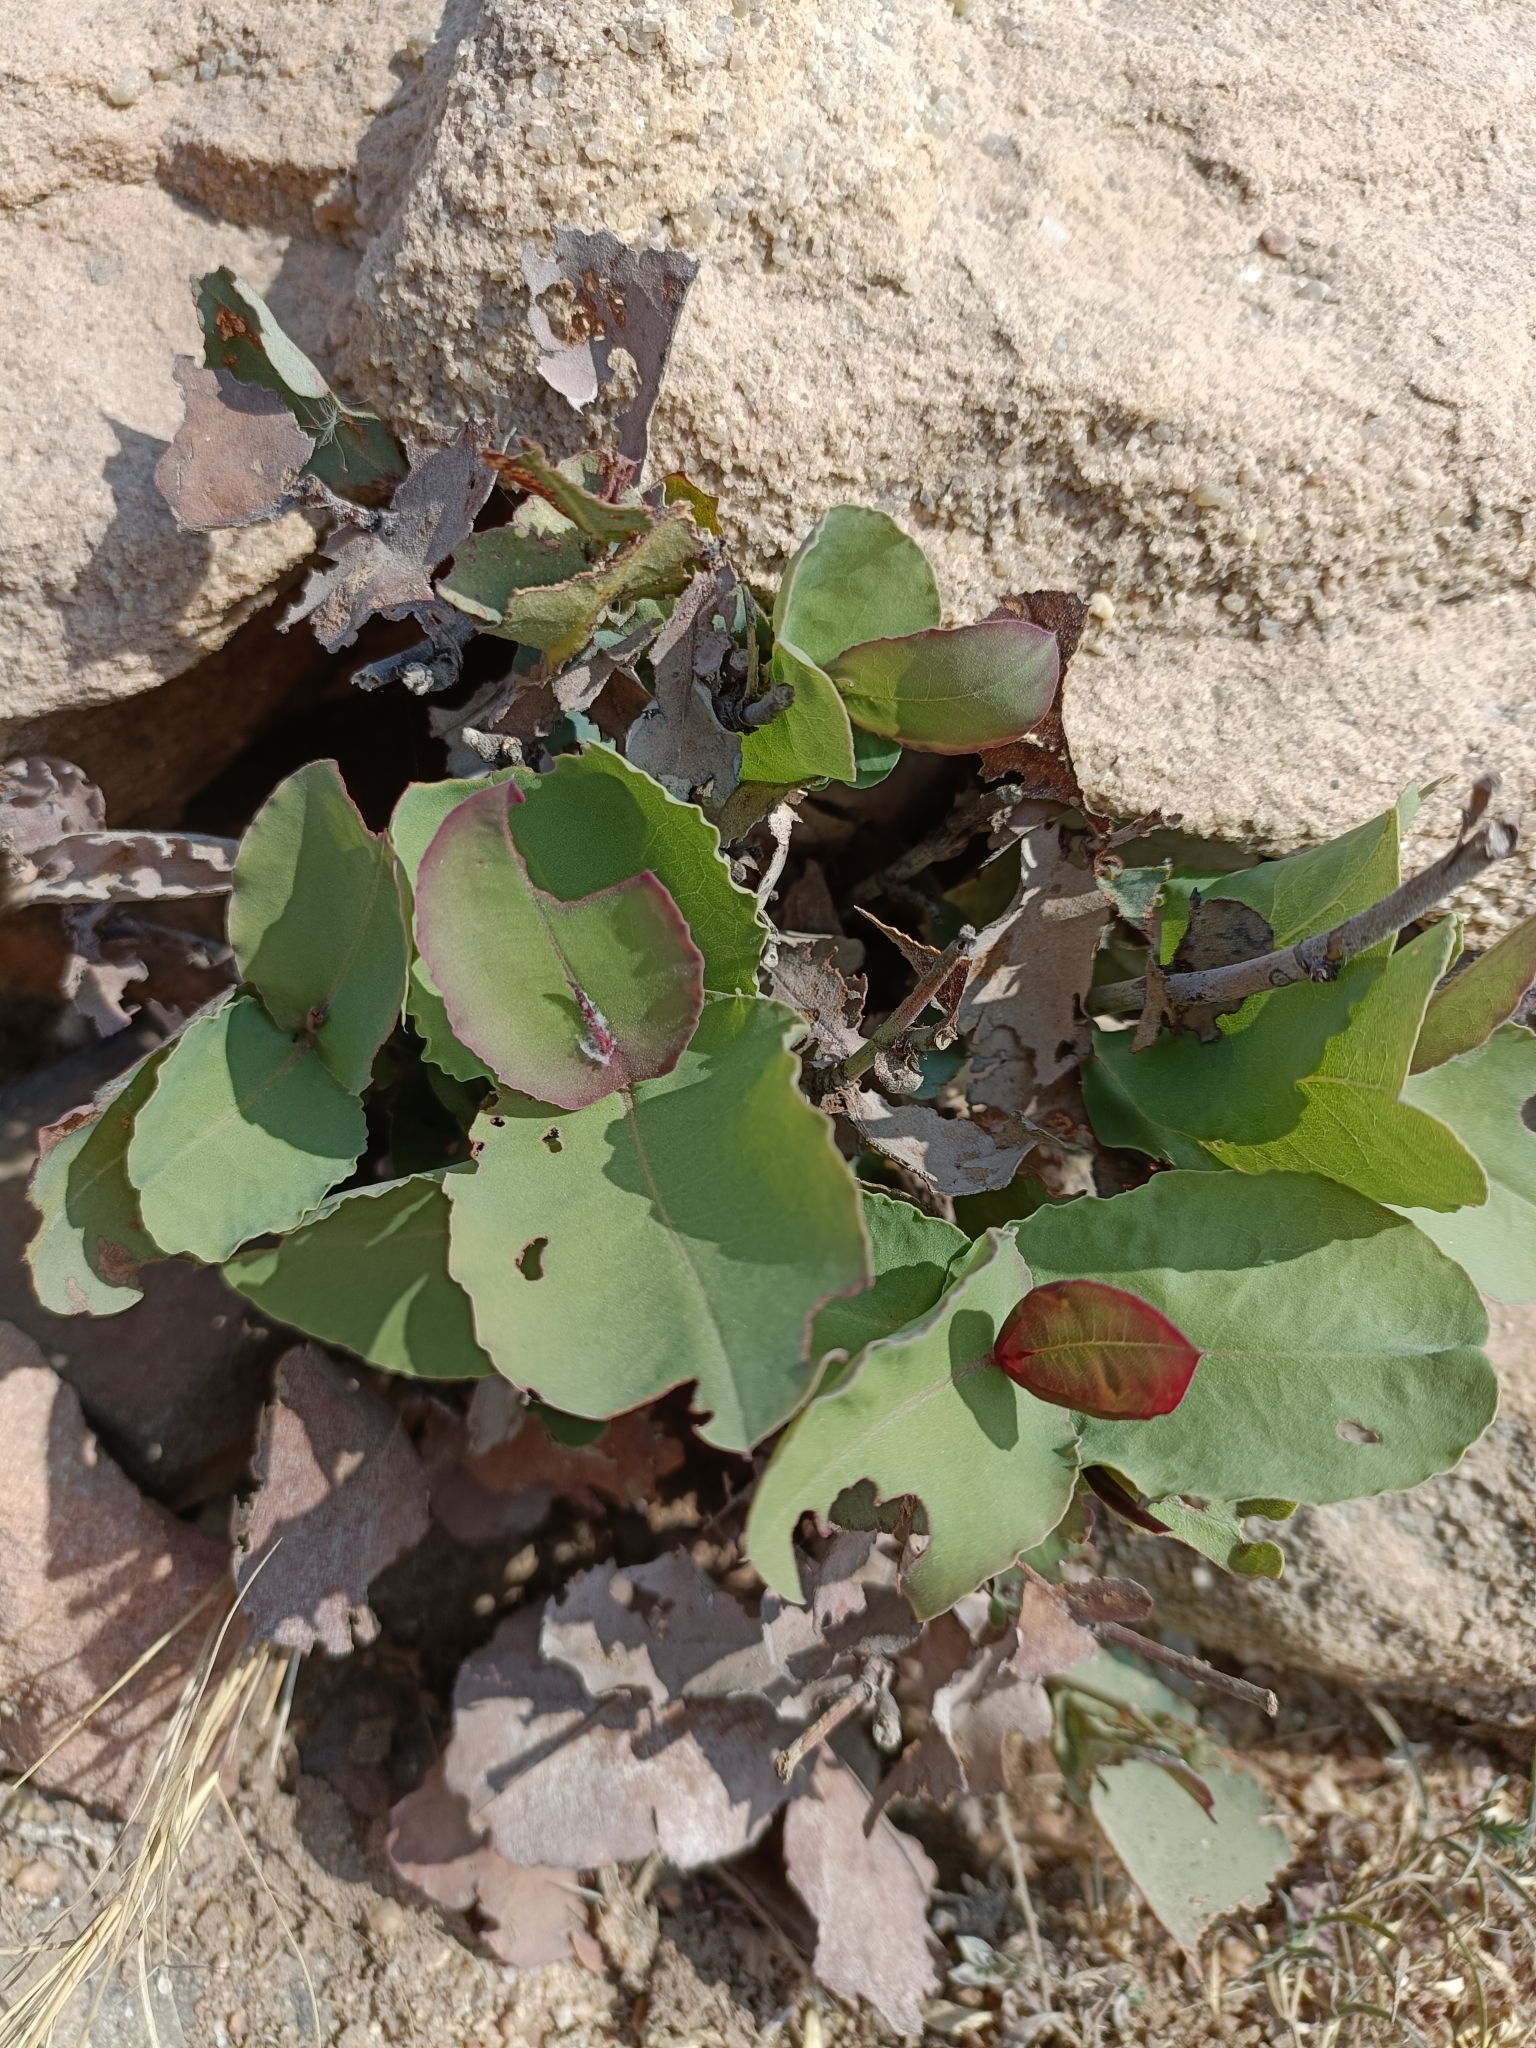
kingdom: Plantae
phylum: Tracheophyta
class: Magnoliopsida
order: Caryophyllales
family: Plumbaginaceae
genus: Dyerophytum
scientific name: Dyerophytum indicum
